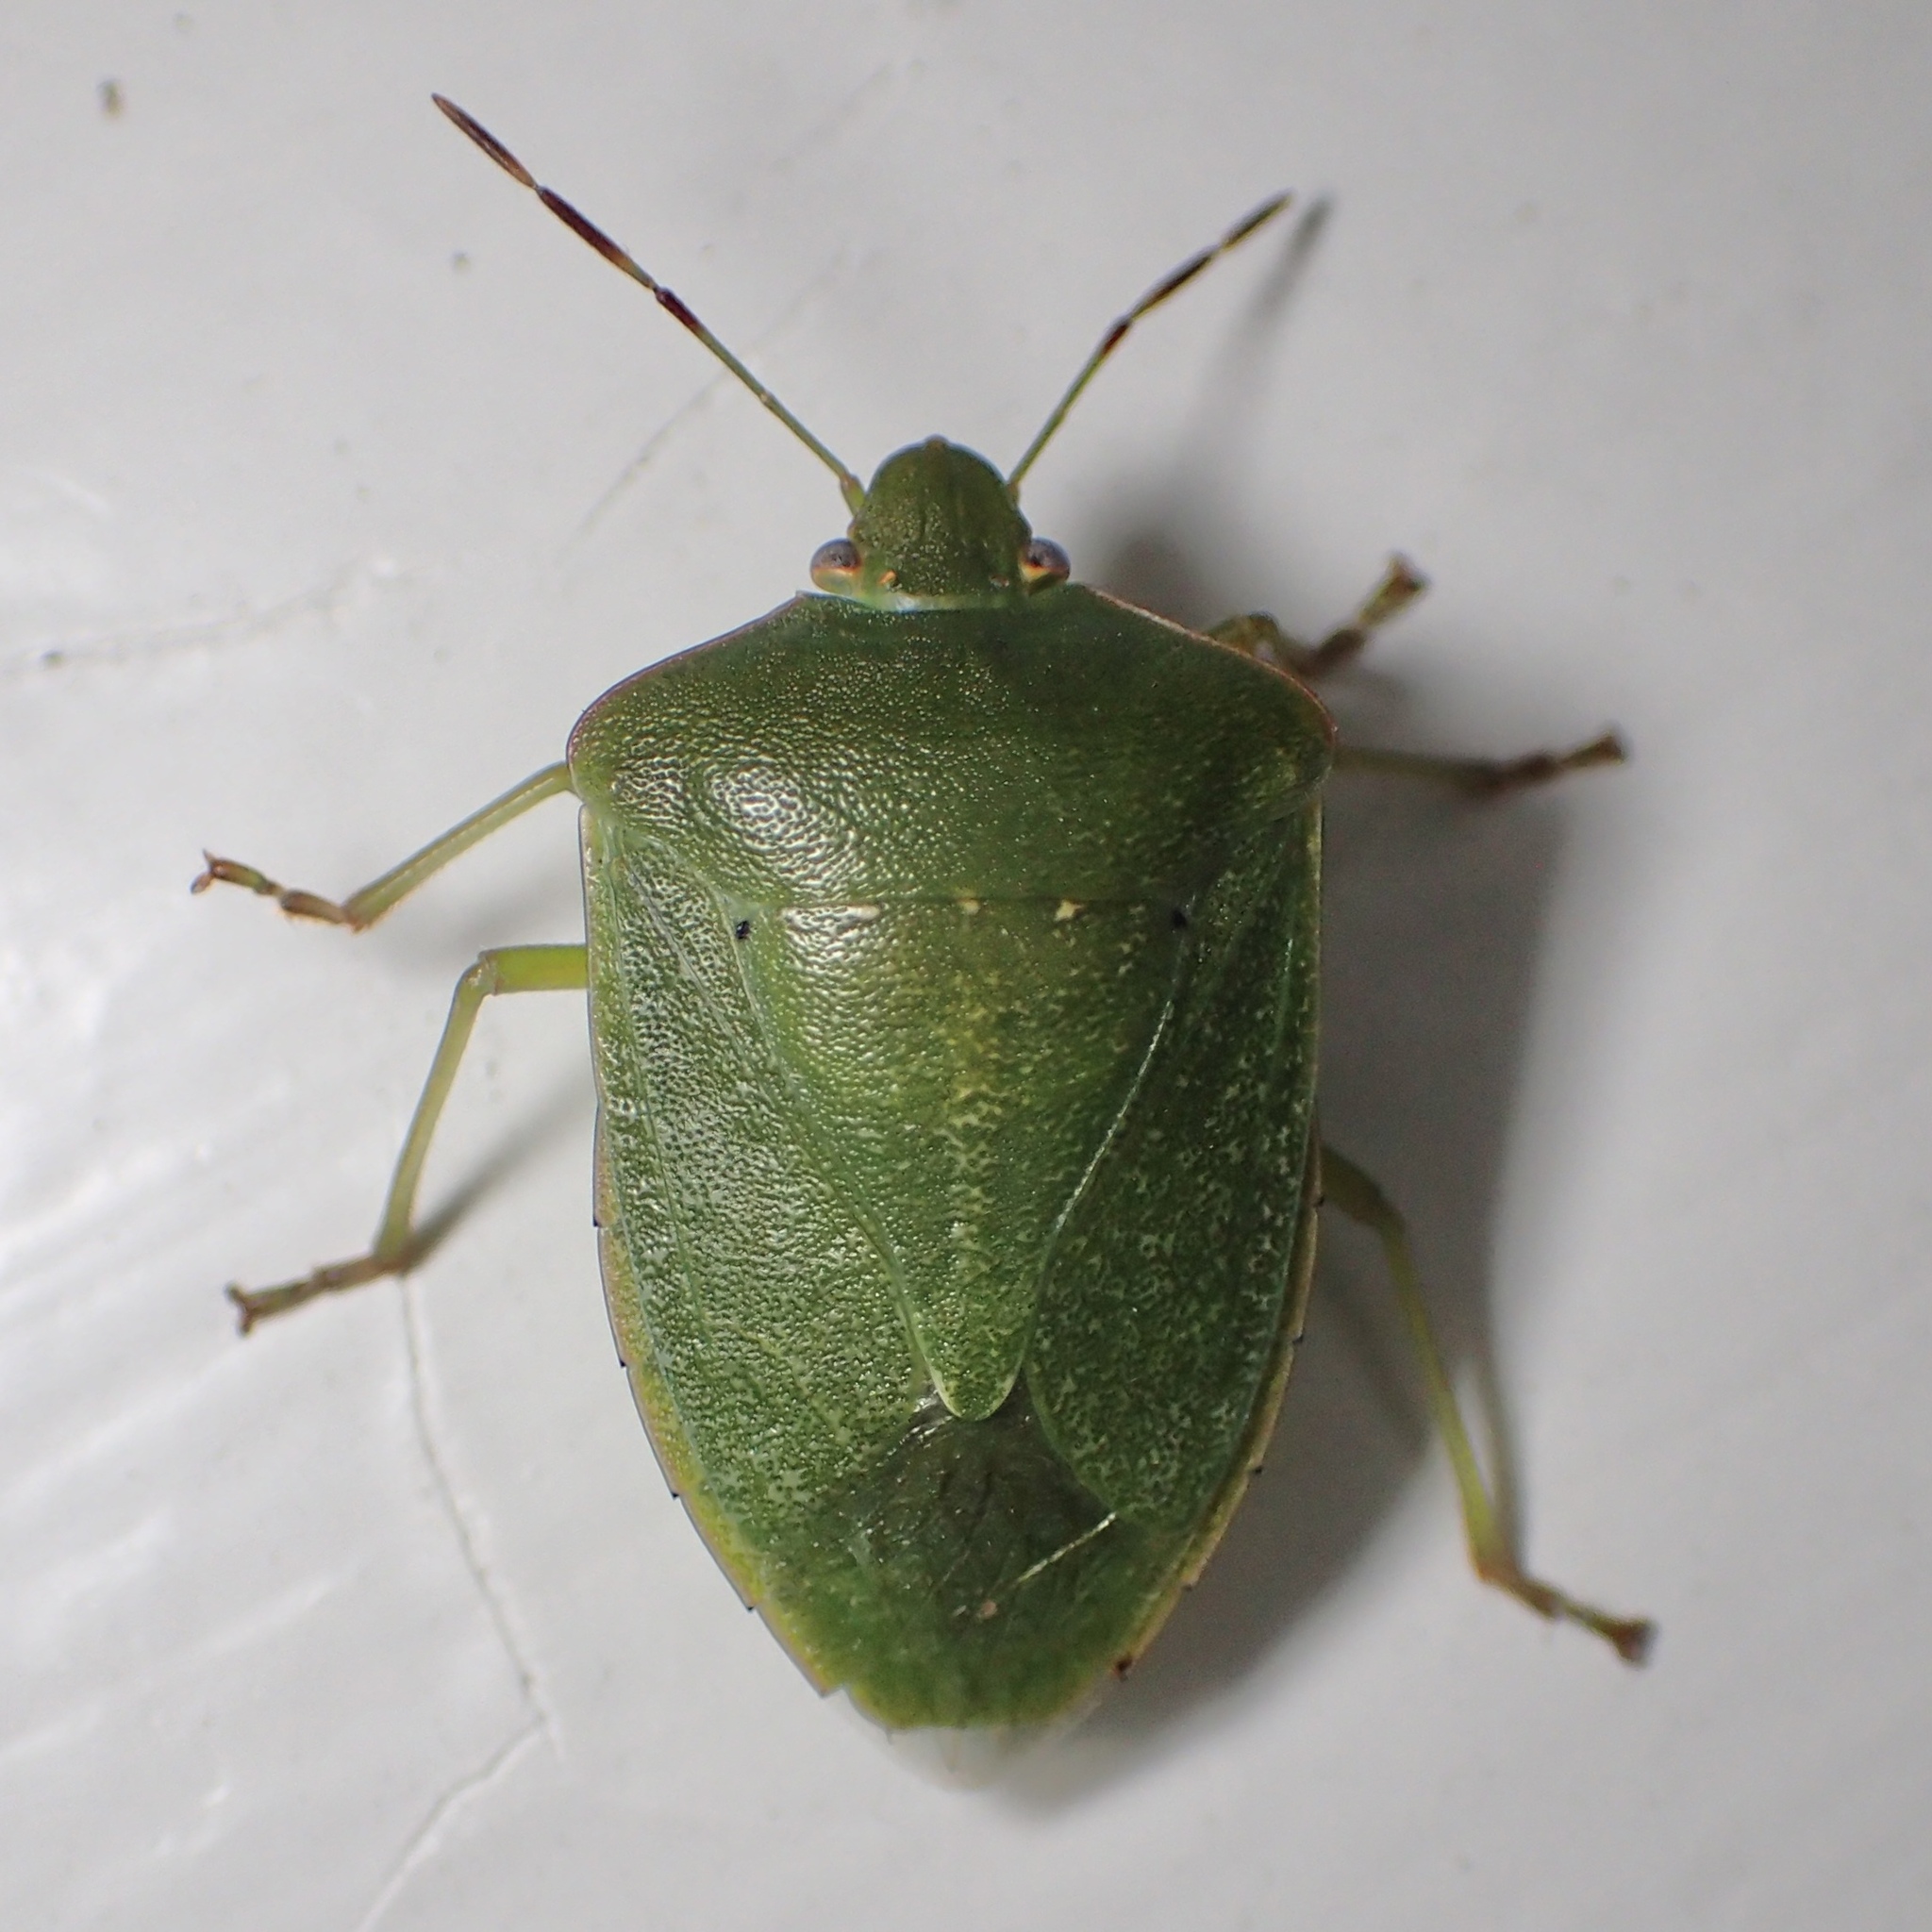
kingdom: Animalia
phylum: Arthropoda
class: Insecta
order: Hemiptera
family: Pentatomidae
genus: Nezara
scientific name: Nezara viridula
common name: Southern green stink bug
